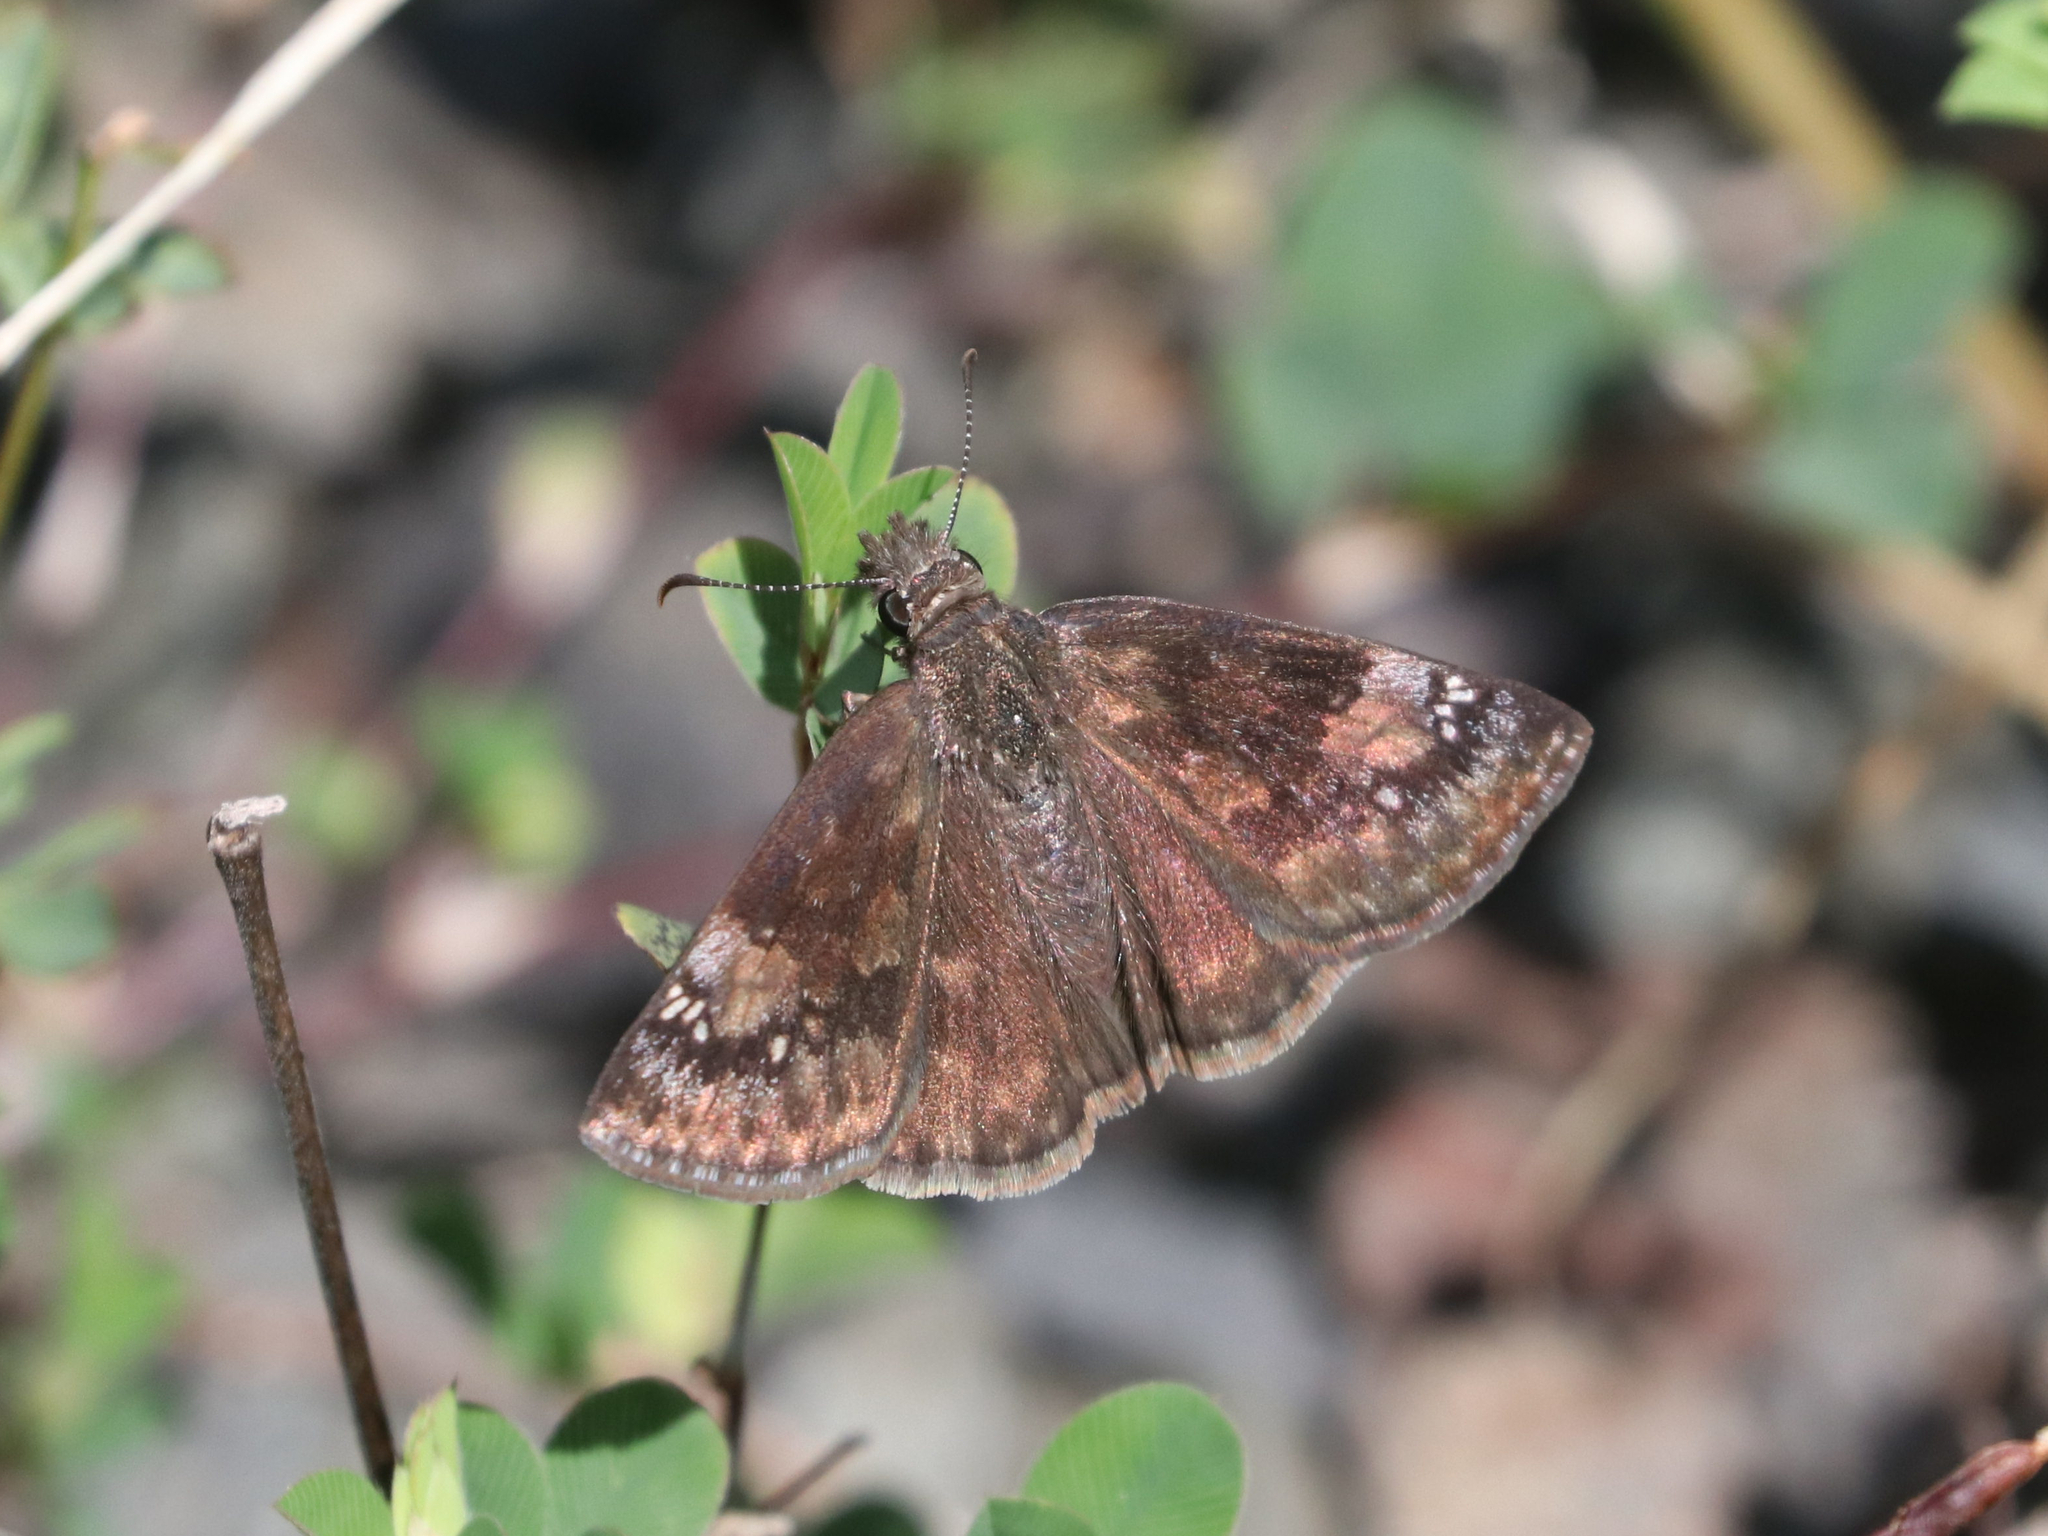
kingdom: Animalia
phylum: Arthropoda
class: Insecta
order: Lepidoptera
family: Hesperiidae
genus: Erynnis
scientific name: Erynnis baptisiae
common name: Wild indigo duskywing
